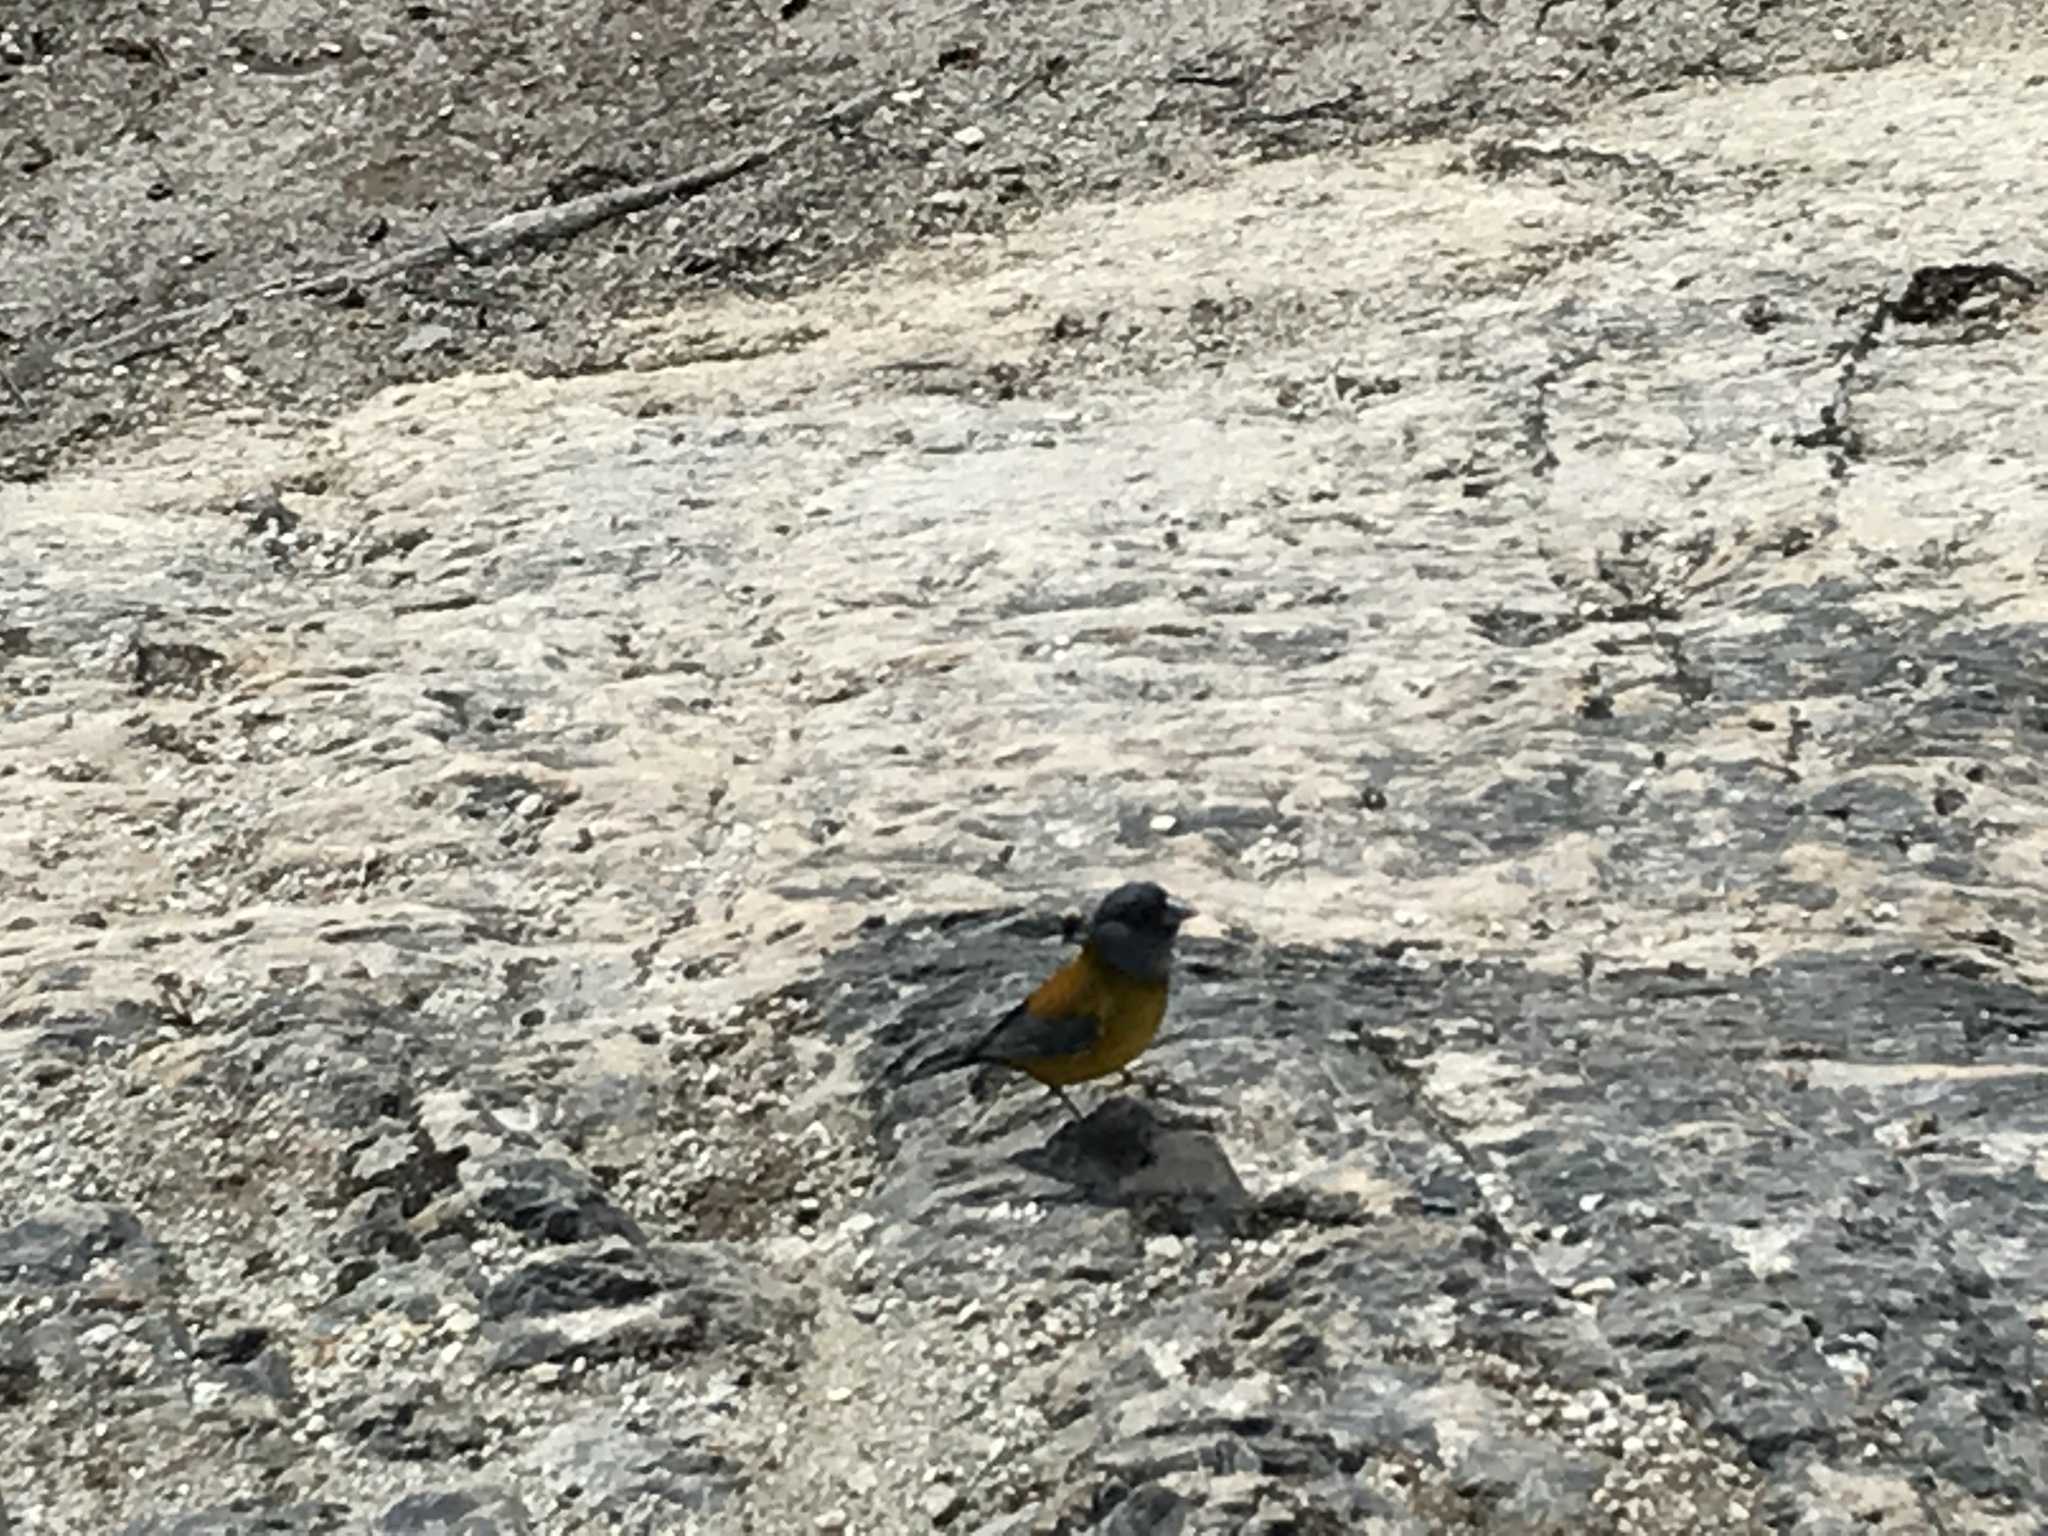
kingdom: Animalia
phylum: Chordata
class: Aves
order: Passeriformes
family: Thraupidae
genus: Phrygilus
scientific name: Phrygilus patagonicus
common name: Patagonian sierra finch
